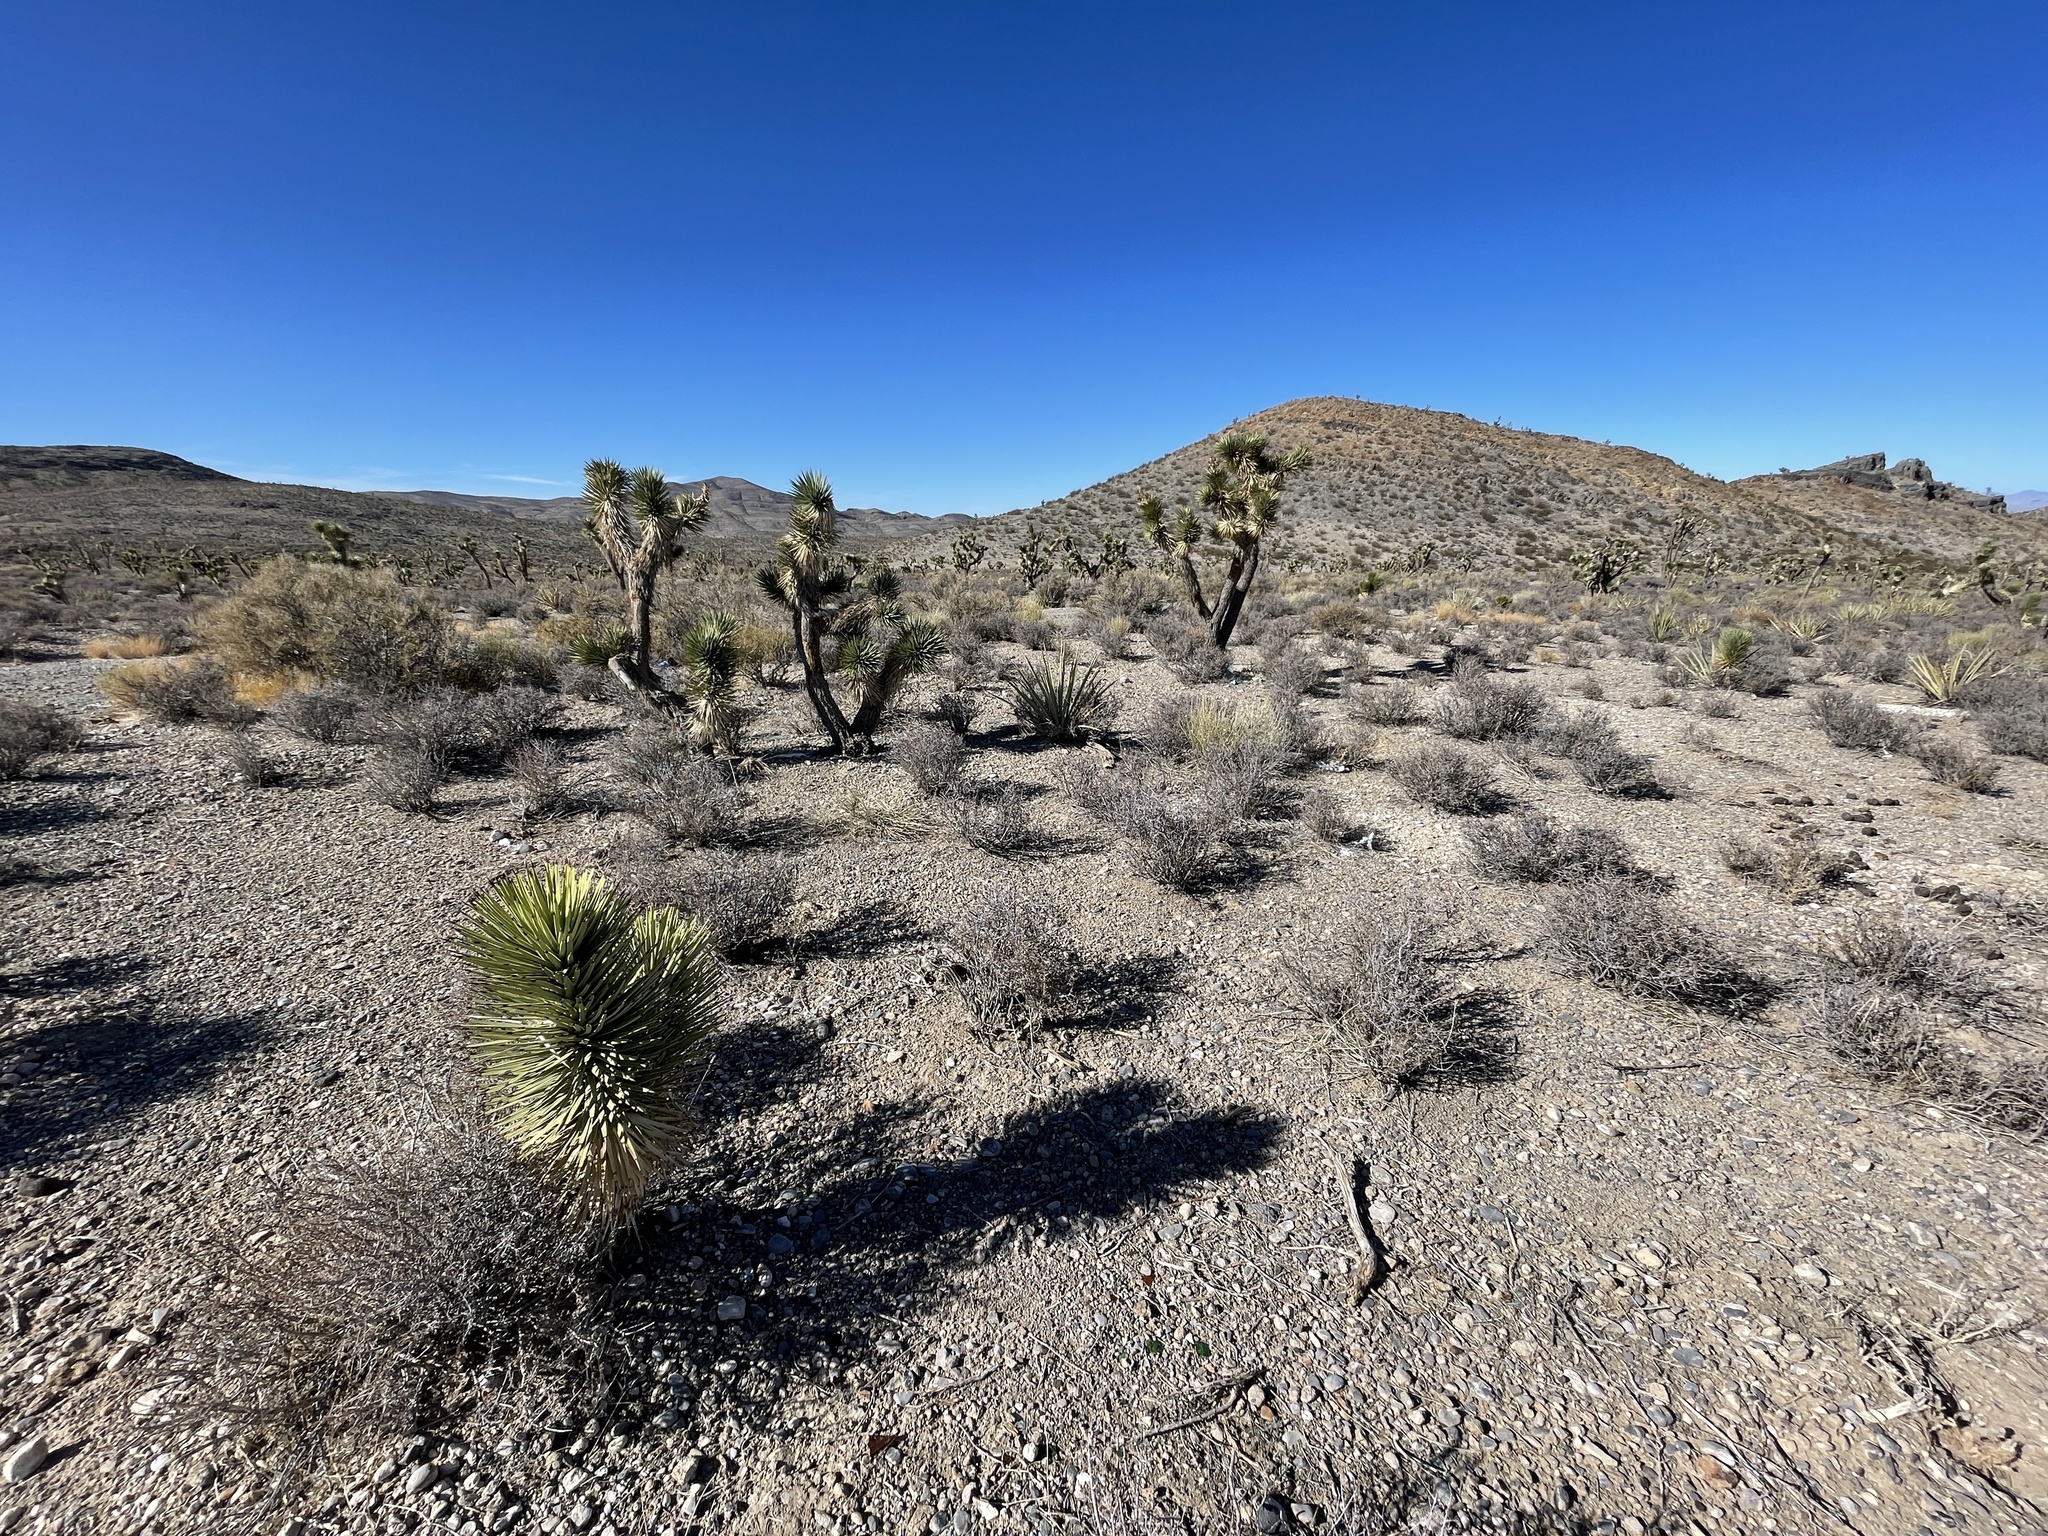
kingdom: Plantae
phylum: Tracheophyta
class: Liliopsida
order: Asparagales
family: Asparagaceae
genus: Yucca
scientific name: Yucca brevifolia
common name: Joshua tree
